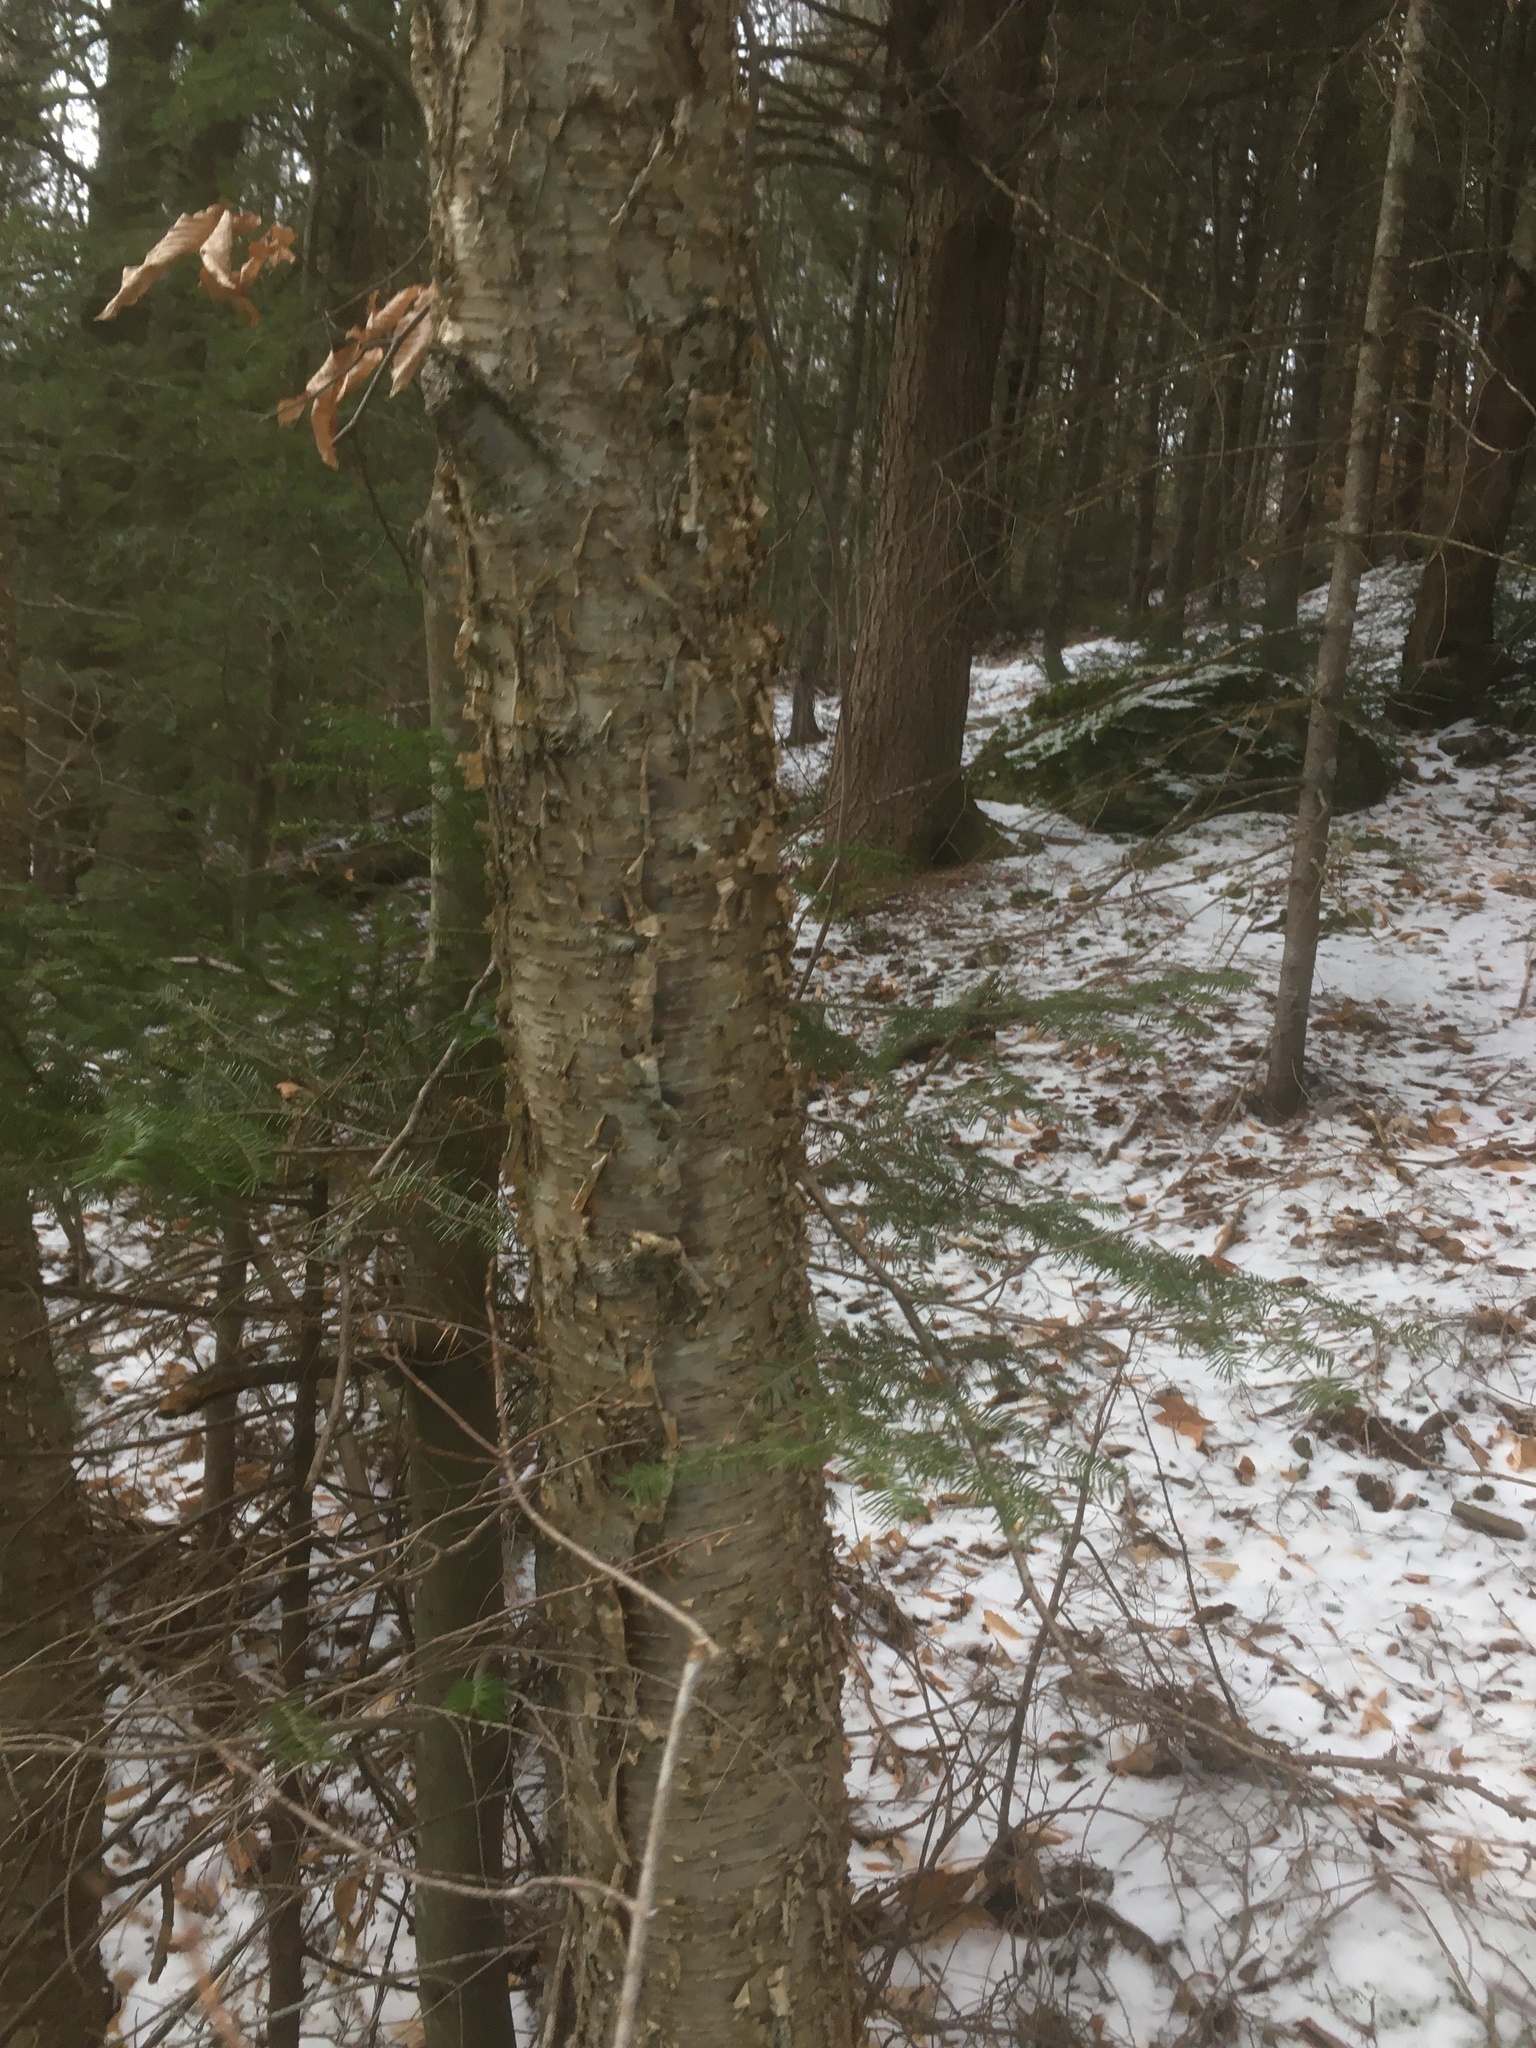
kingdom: Plantae
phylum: Tracheophyta
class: Magnoliopsida
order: Fagales
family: Betulaceae
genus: Betula
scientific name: Betula alleghaniensis
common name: Yellow birch
